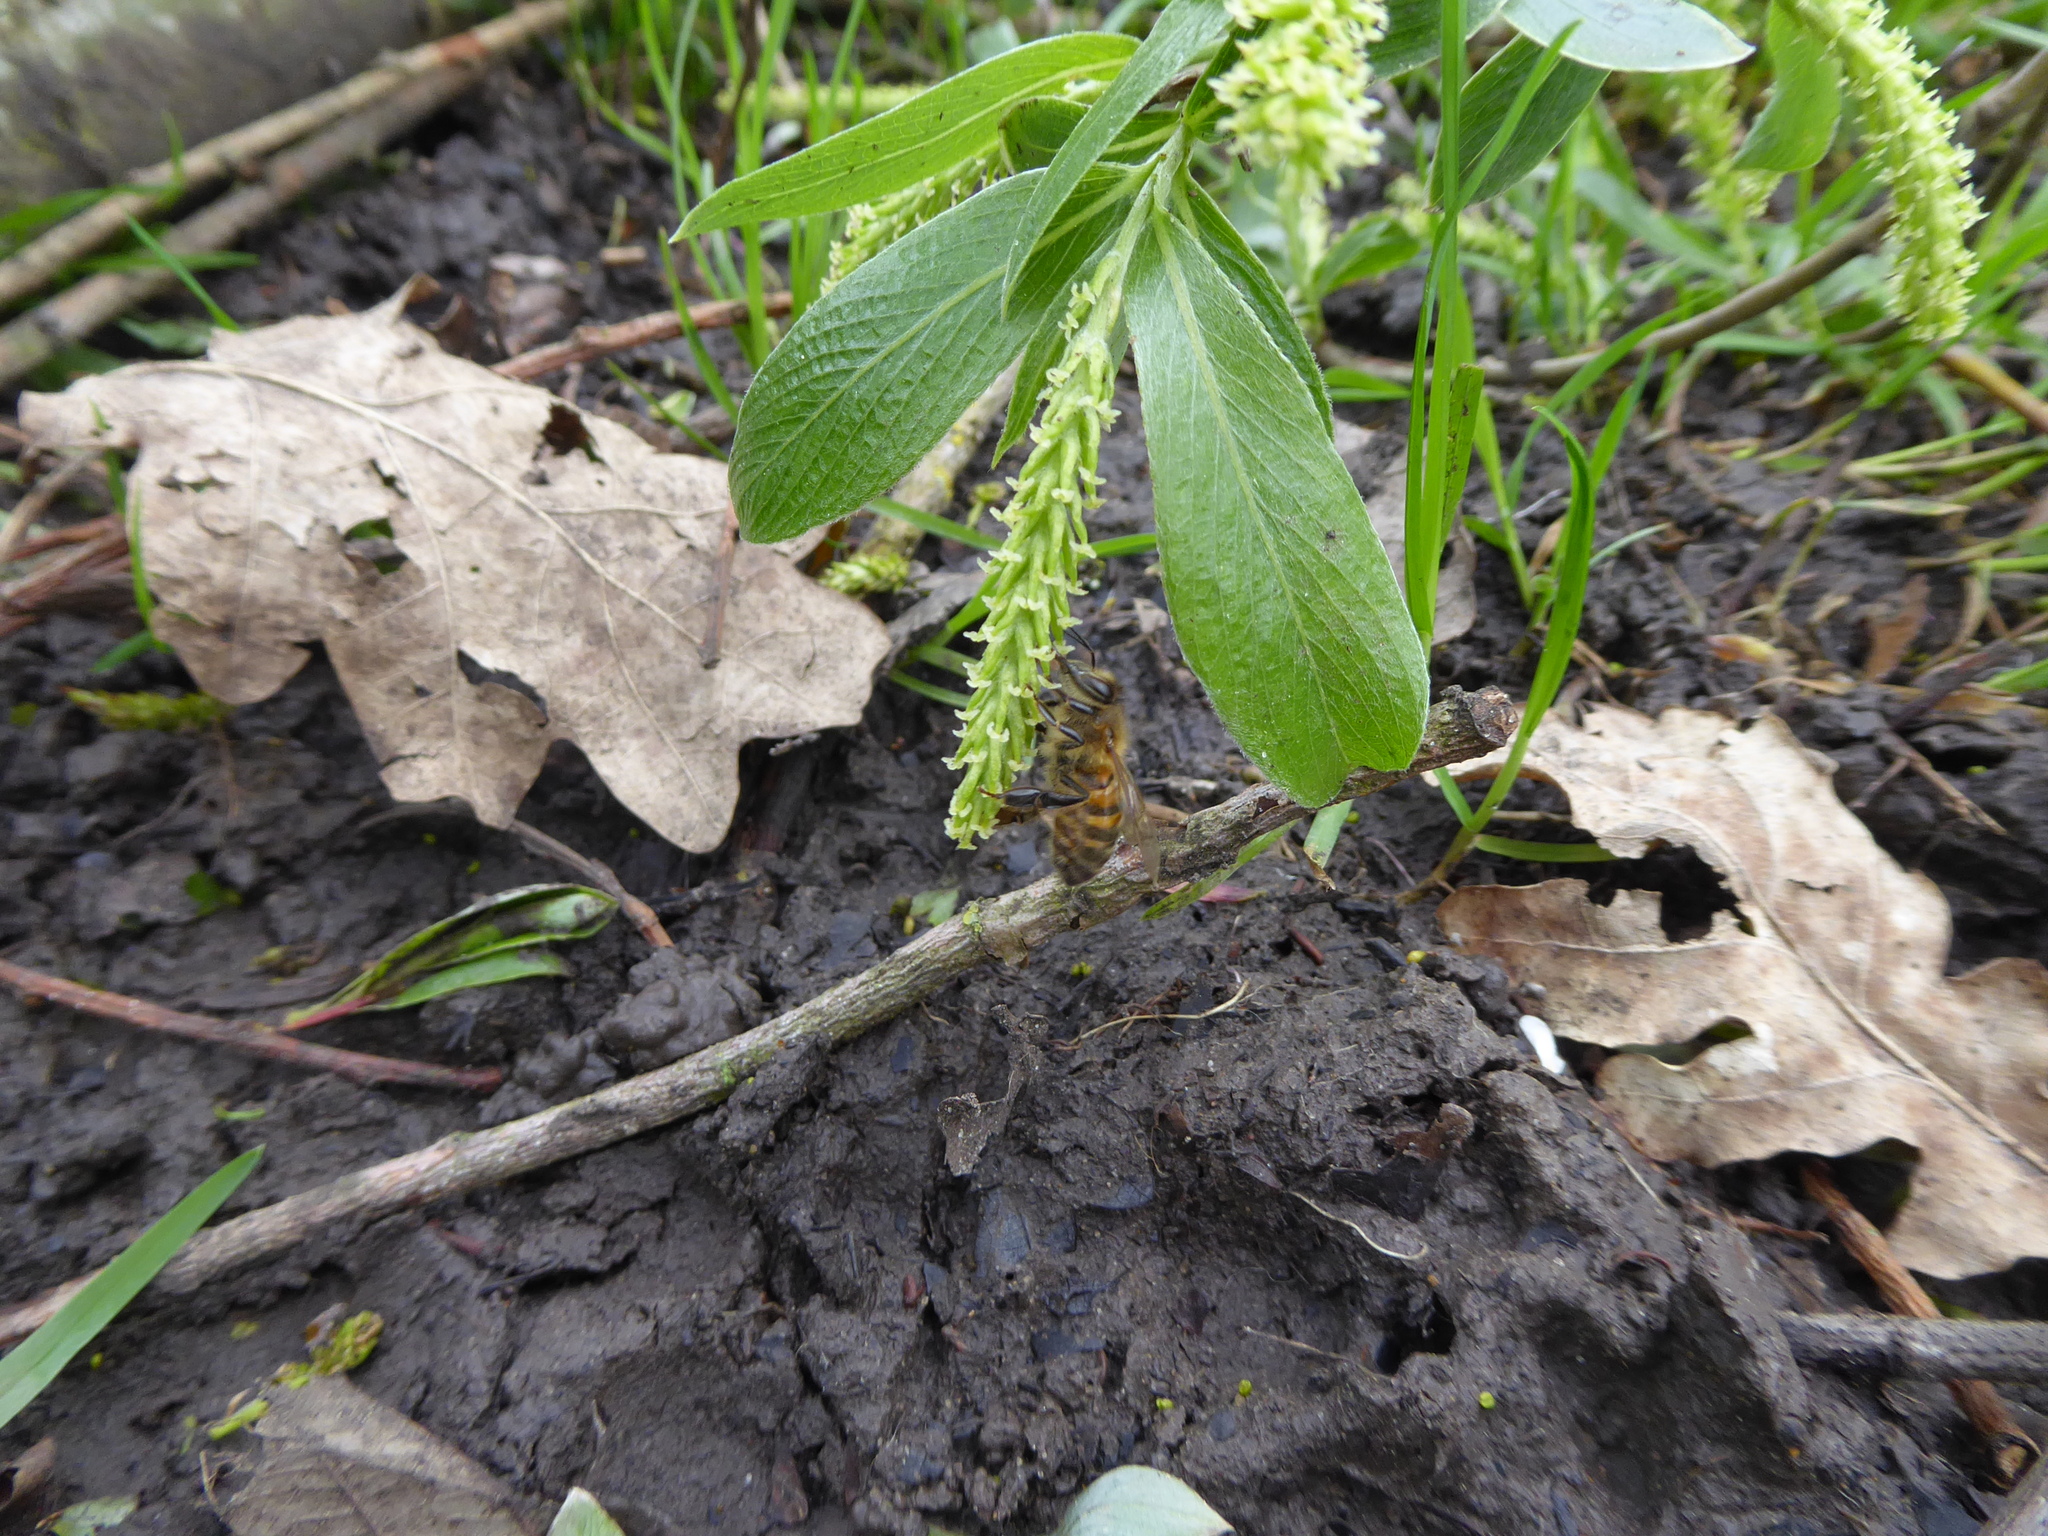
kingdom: Animalia
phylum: Arthropoda
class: Insecta
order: Hymenoptera
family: Apidae
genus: Apis
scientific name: Apis mellifera
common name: Honey bee
